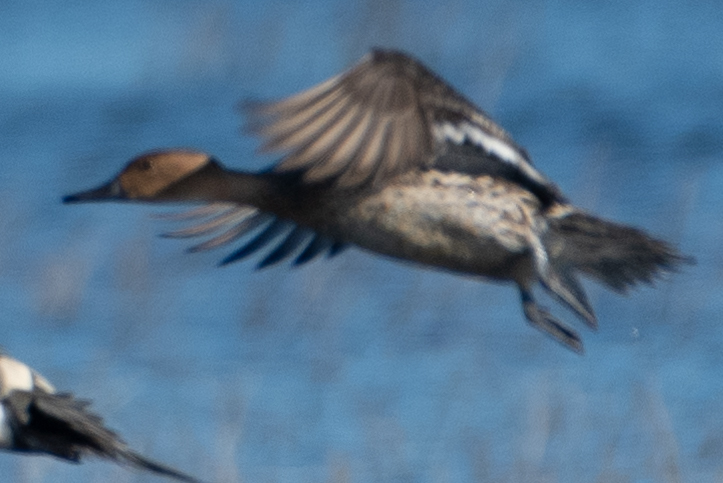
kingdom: Animalia
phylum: Chordata
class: Aves
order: Anseriformes
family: Anatidae
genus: Anas
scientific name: Anas acuta
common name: Northern pintail
